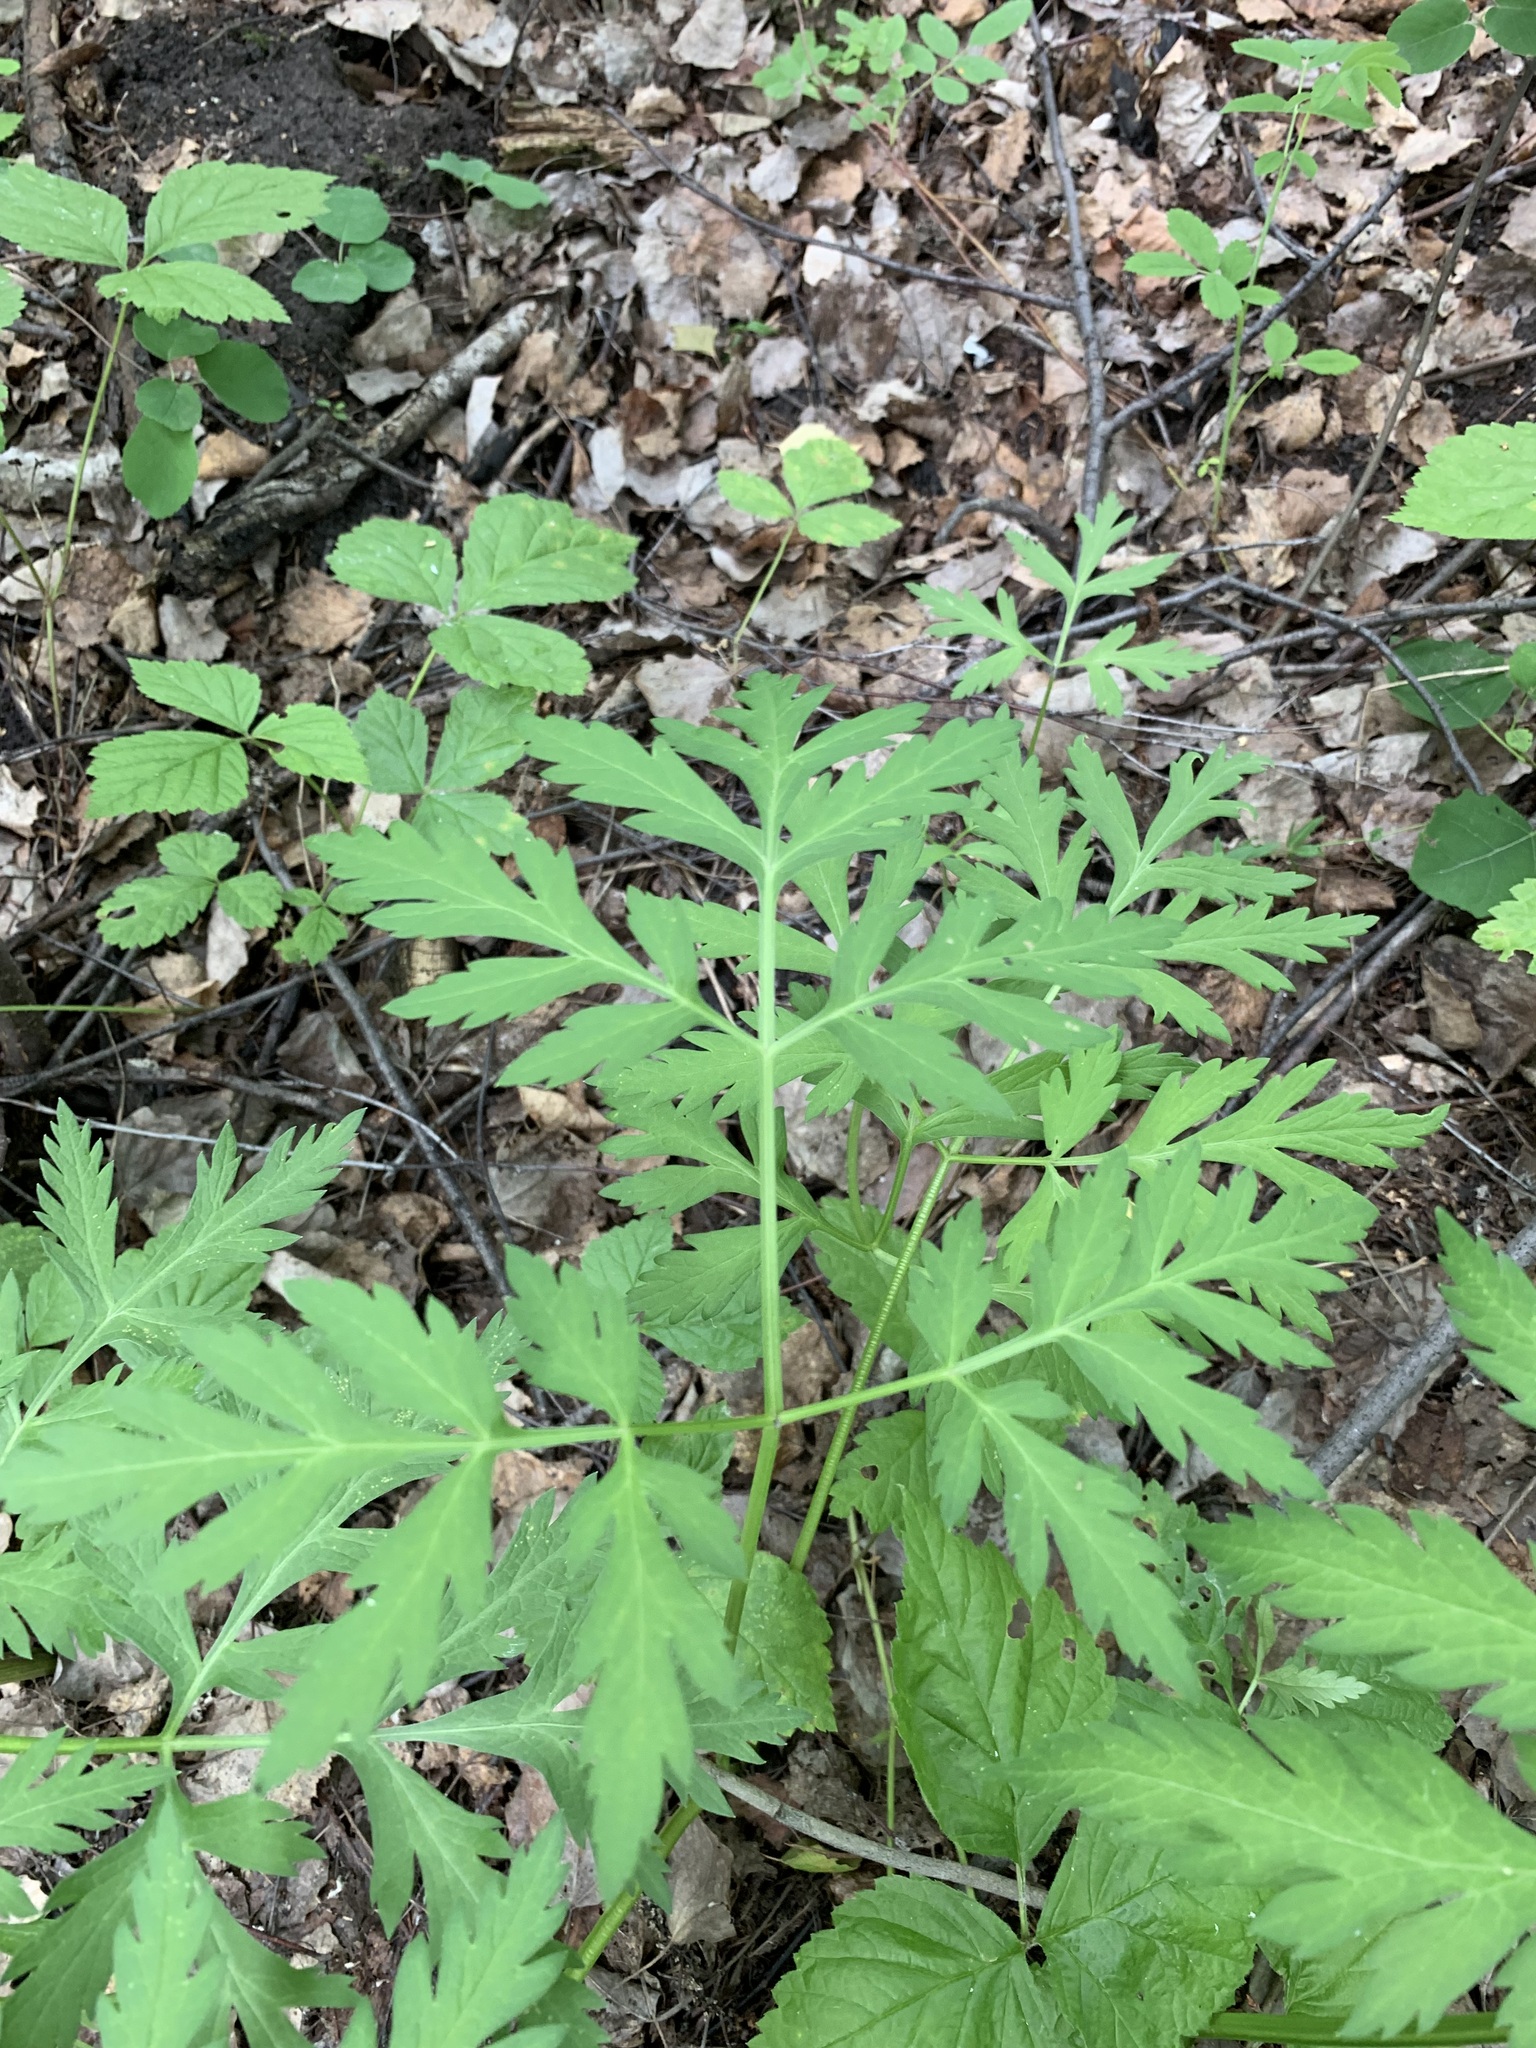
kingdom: Plantae
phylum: Tracheophyta
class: Magnoliopsida
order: Apiales
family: Apiaceae
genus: Pleurospermum
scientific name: Pleurospermum uralense
